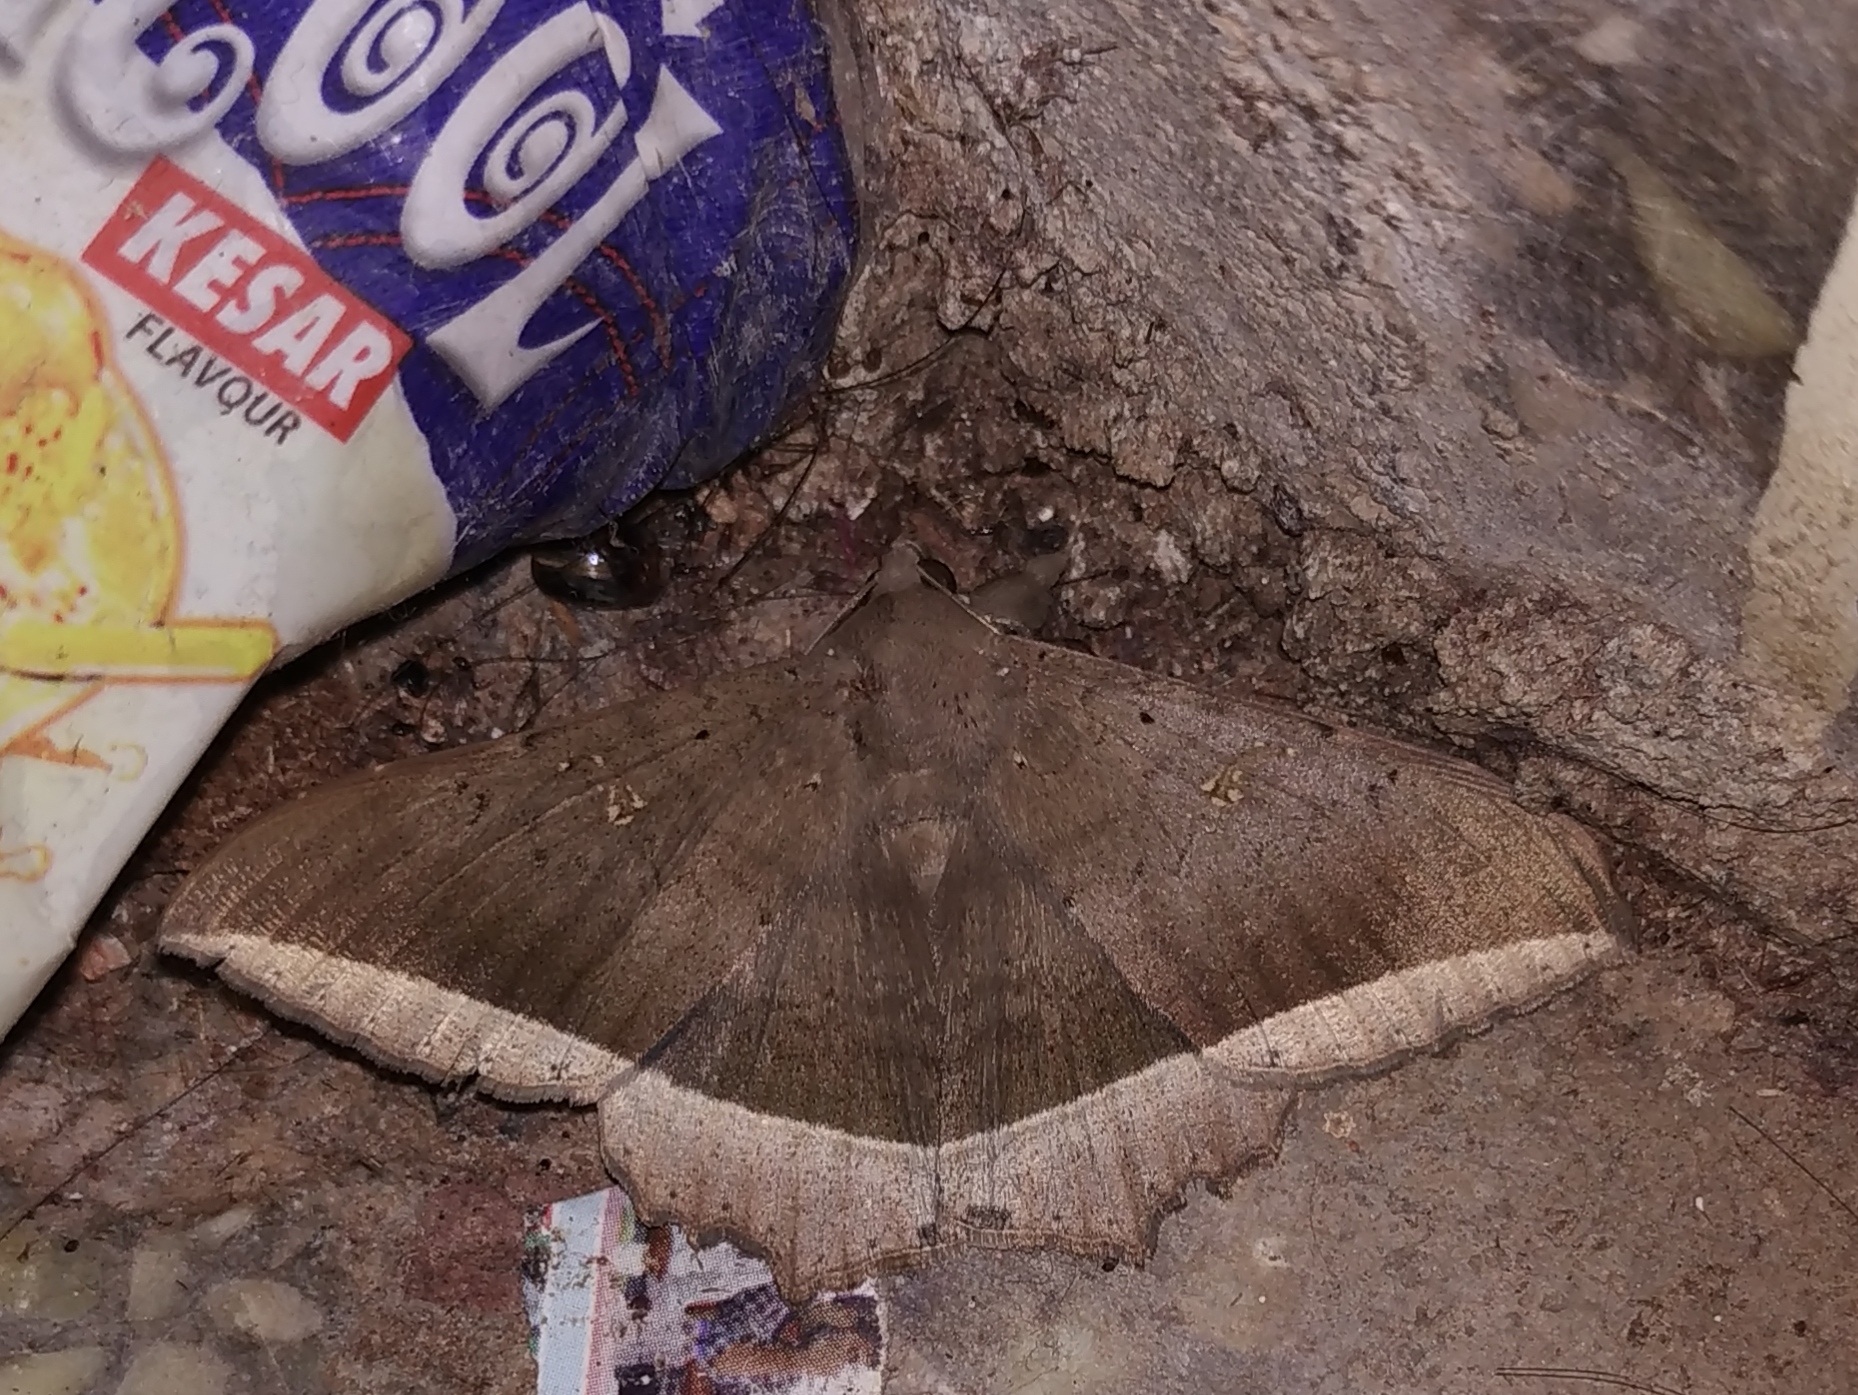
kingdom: Animalia
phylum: Arthropoda
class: Insecta
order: Lepidoptera
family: Erebidae
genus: Hulodes
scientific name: Hulodes caranea
